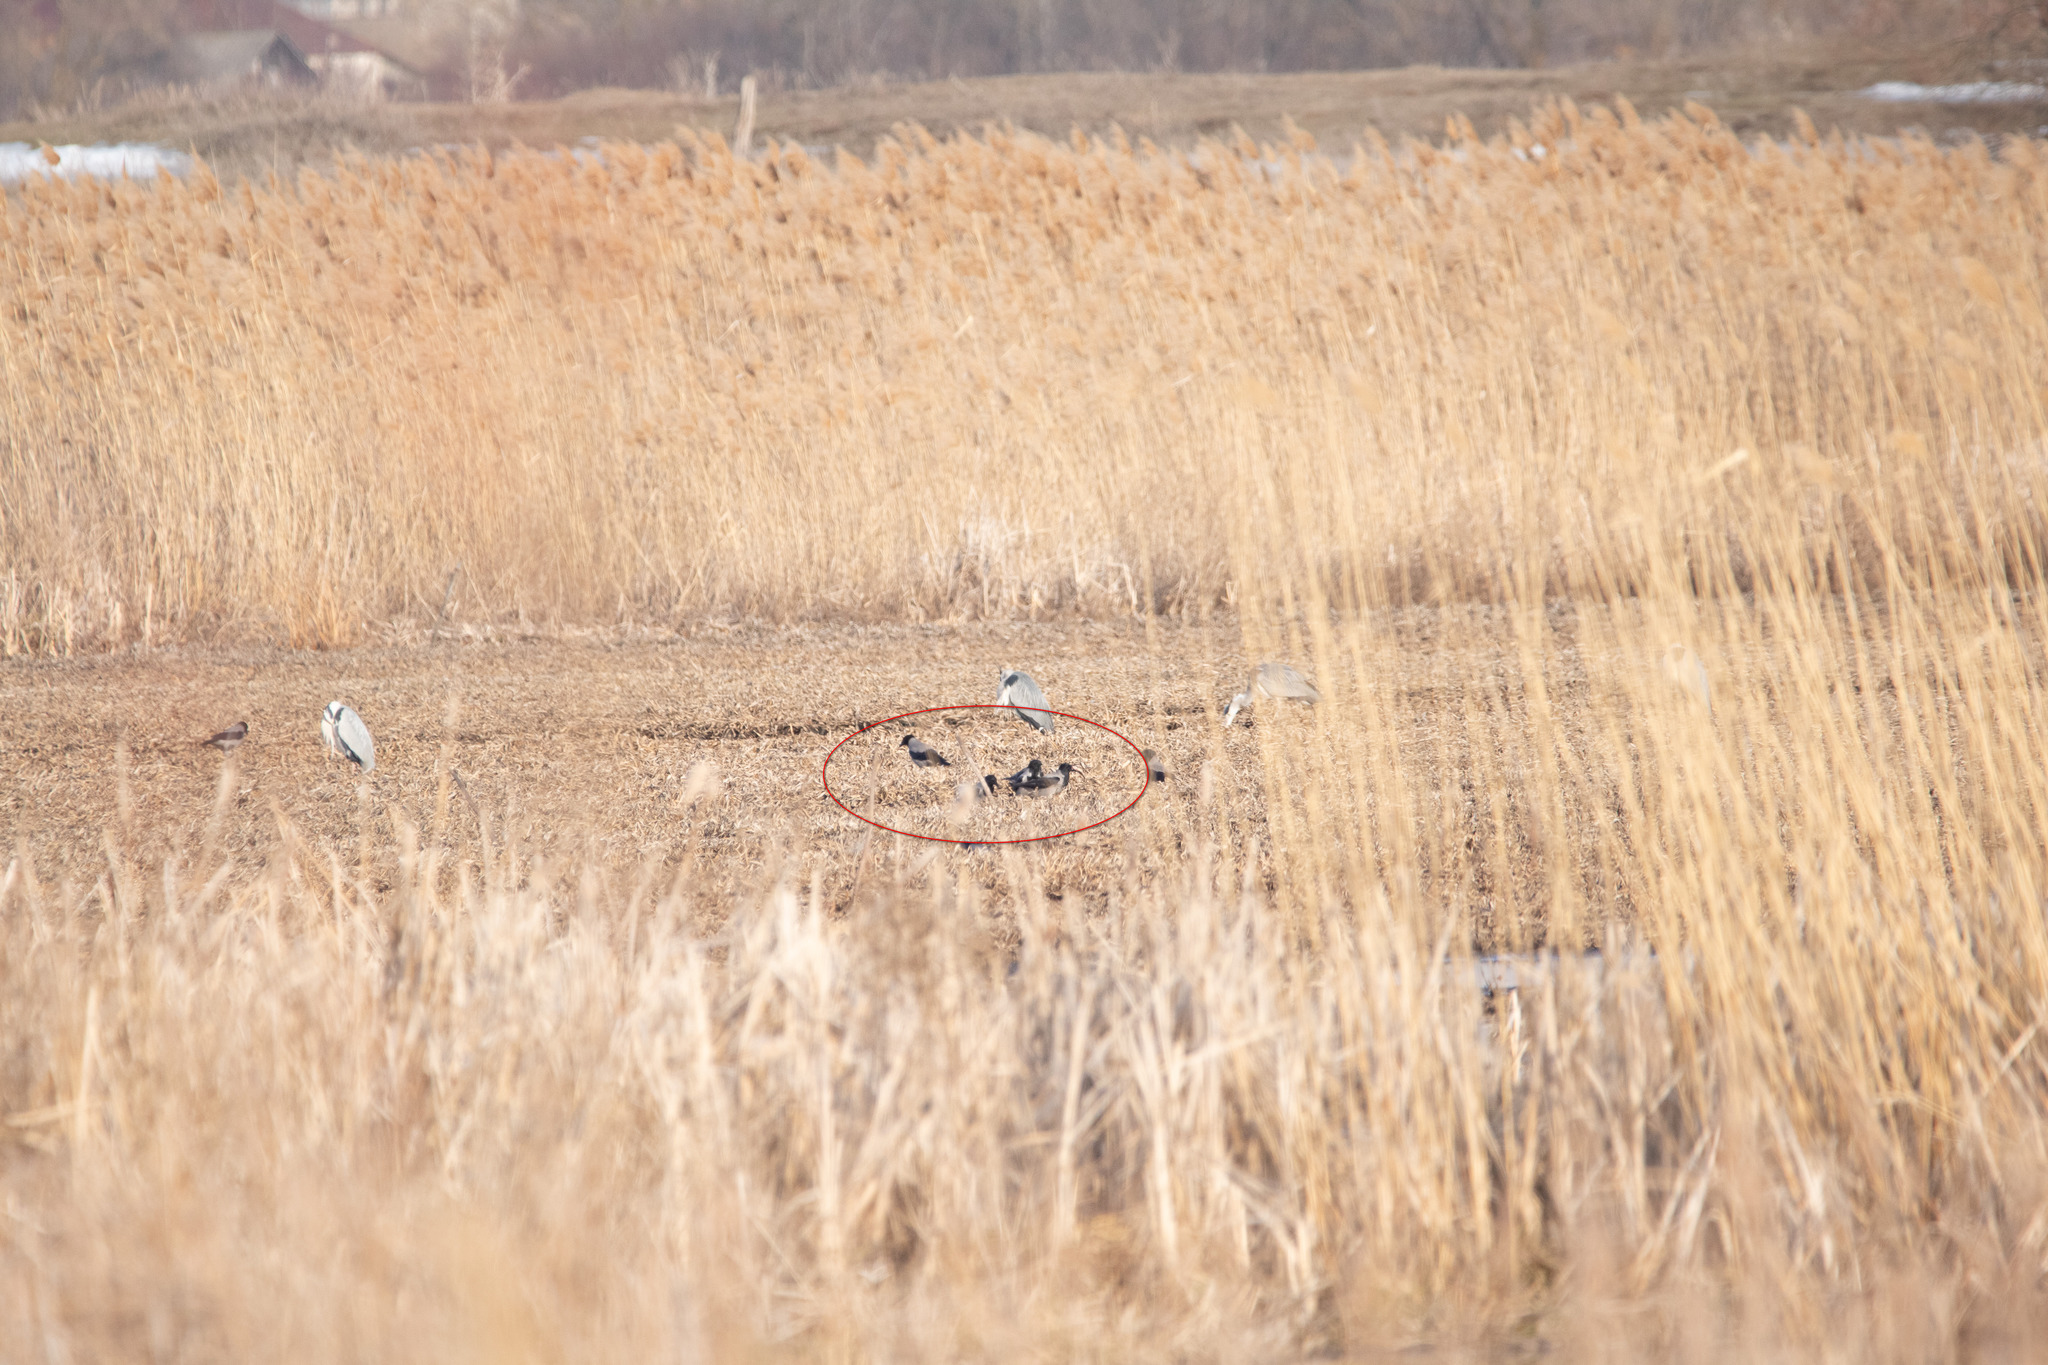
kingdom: Animalia
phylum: Chordata
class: Aves
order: Passeriformes
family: Corvidae
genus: Corvus
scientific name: Corvus cornix
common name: Hooded crow
